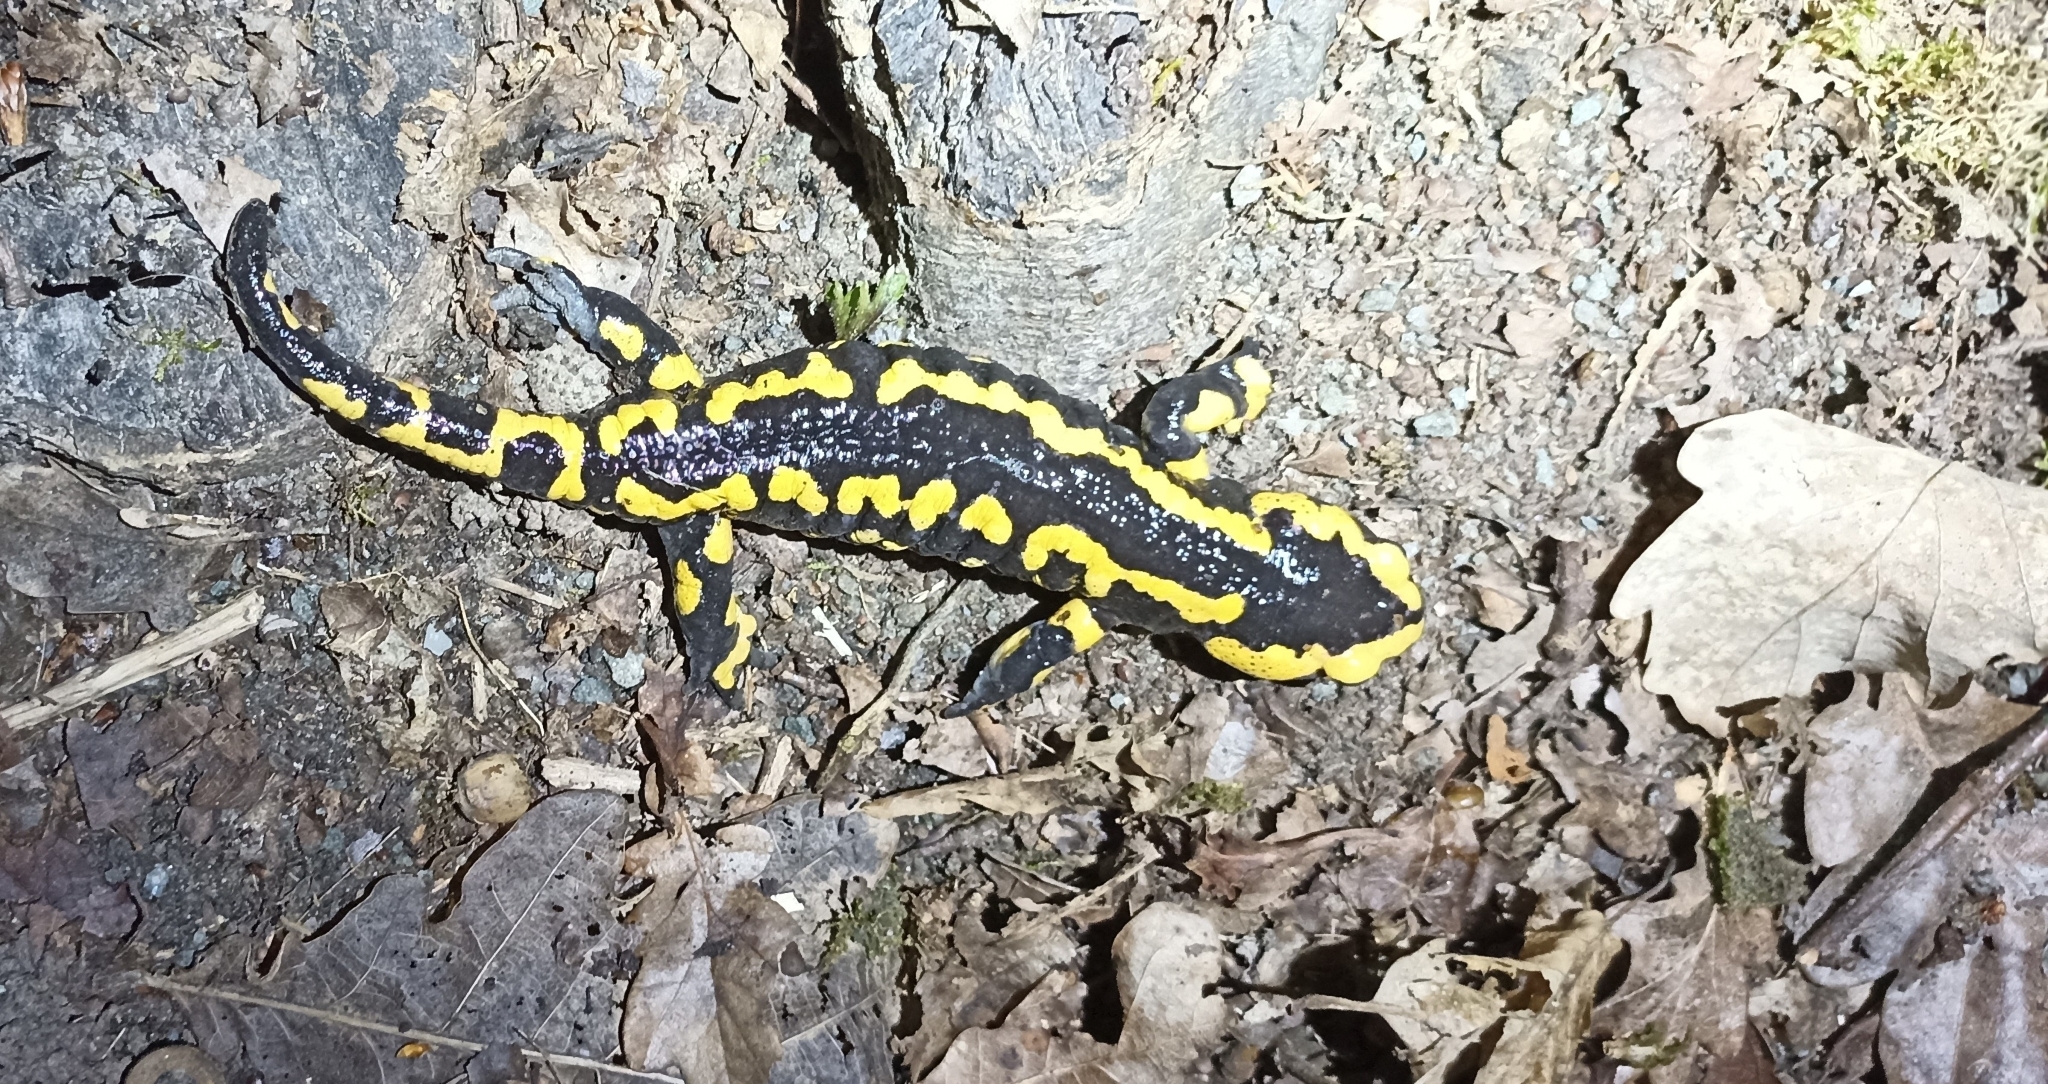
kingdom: Animalia
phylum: Chordata
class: Amphibia
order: Caudata
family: Salamandridae
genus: Salamandra
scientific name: Salamandra salamandra
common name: Fire salamander
